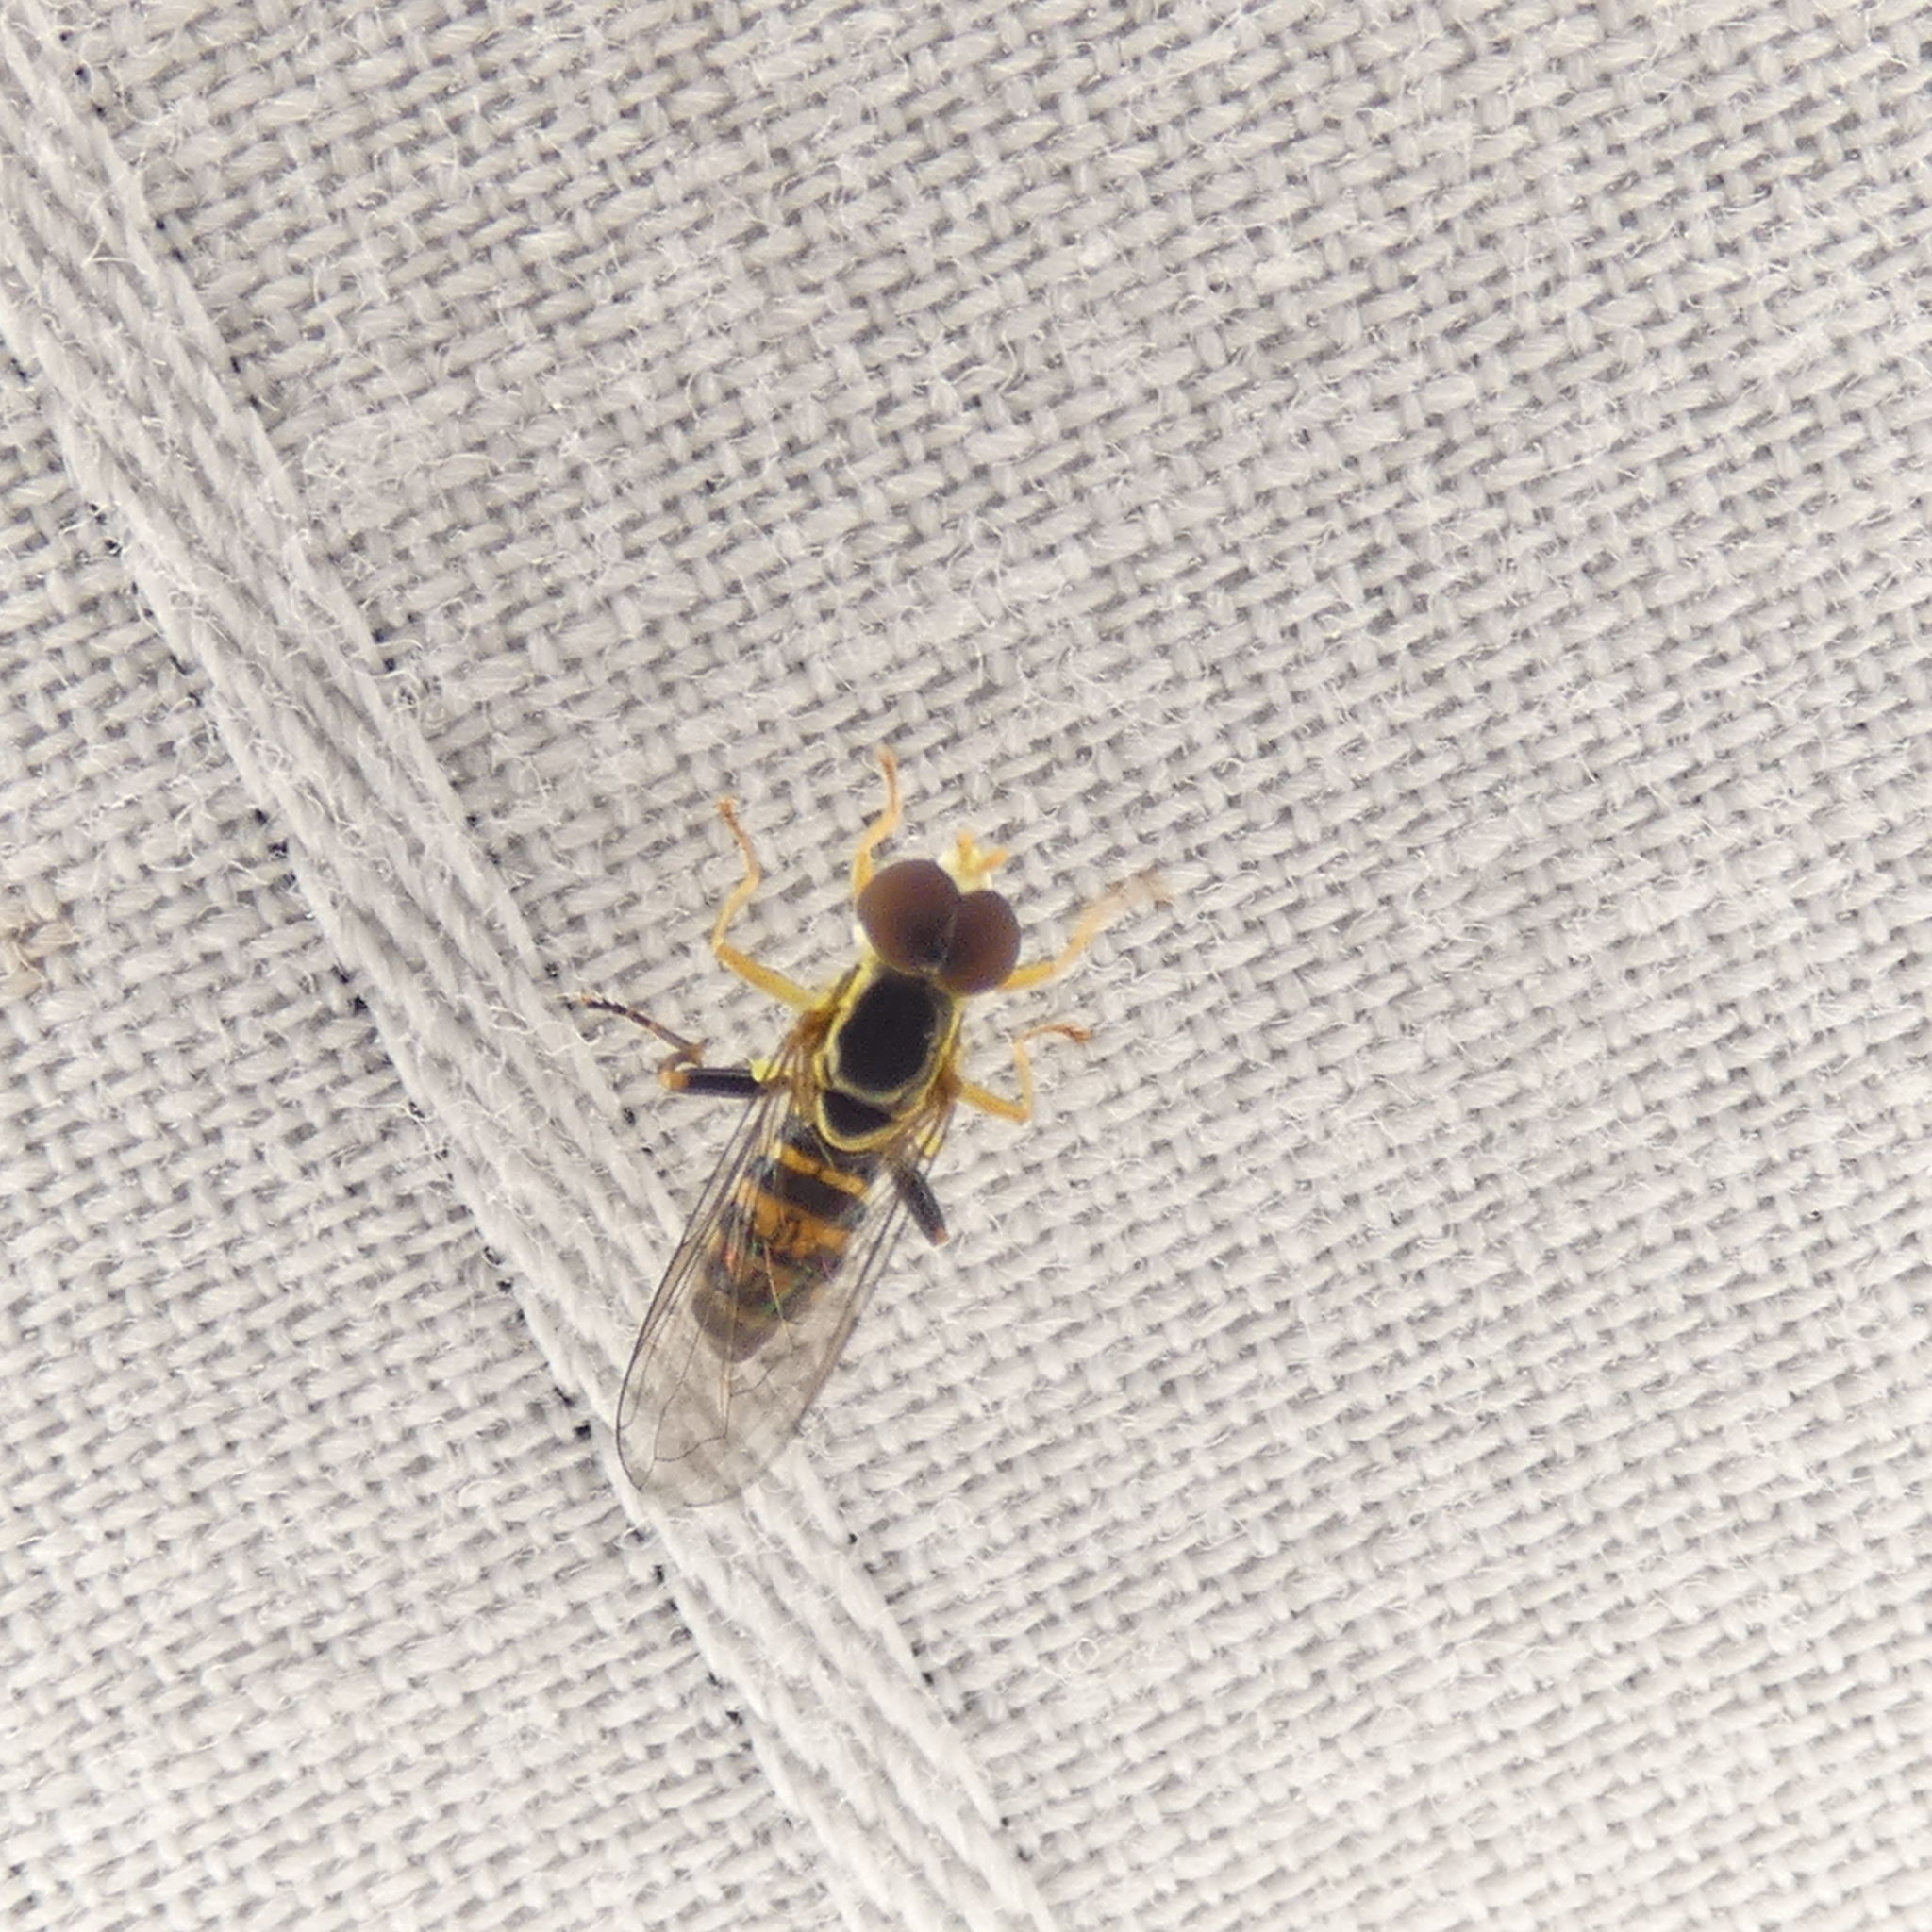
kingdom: Animalia
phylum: Arthropoda
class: Insecta
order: Diptera
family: Syrphidae
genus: Toxomerus
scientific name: Toxomerus geminatus
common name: Eastern calligrapher
